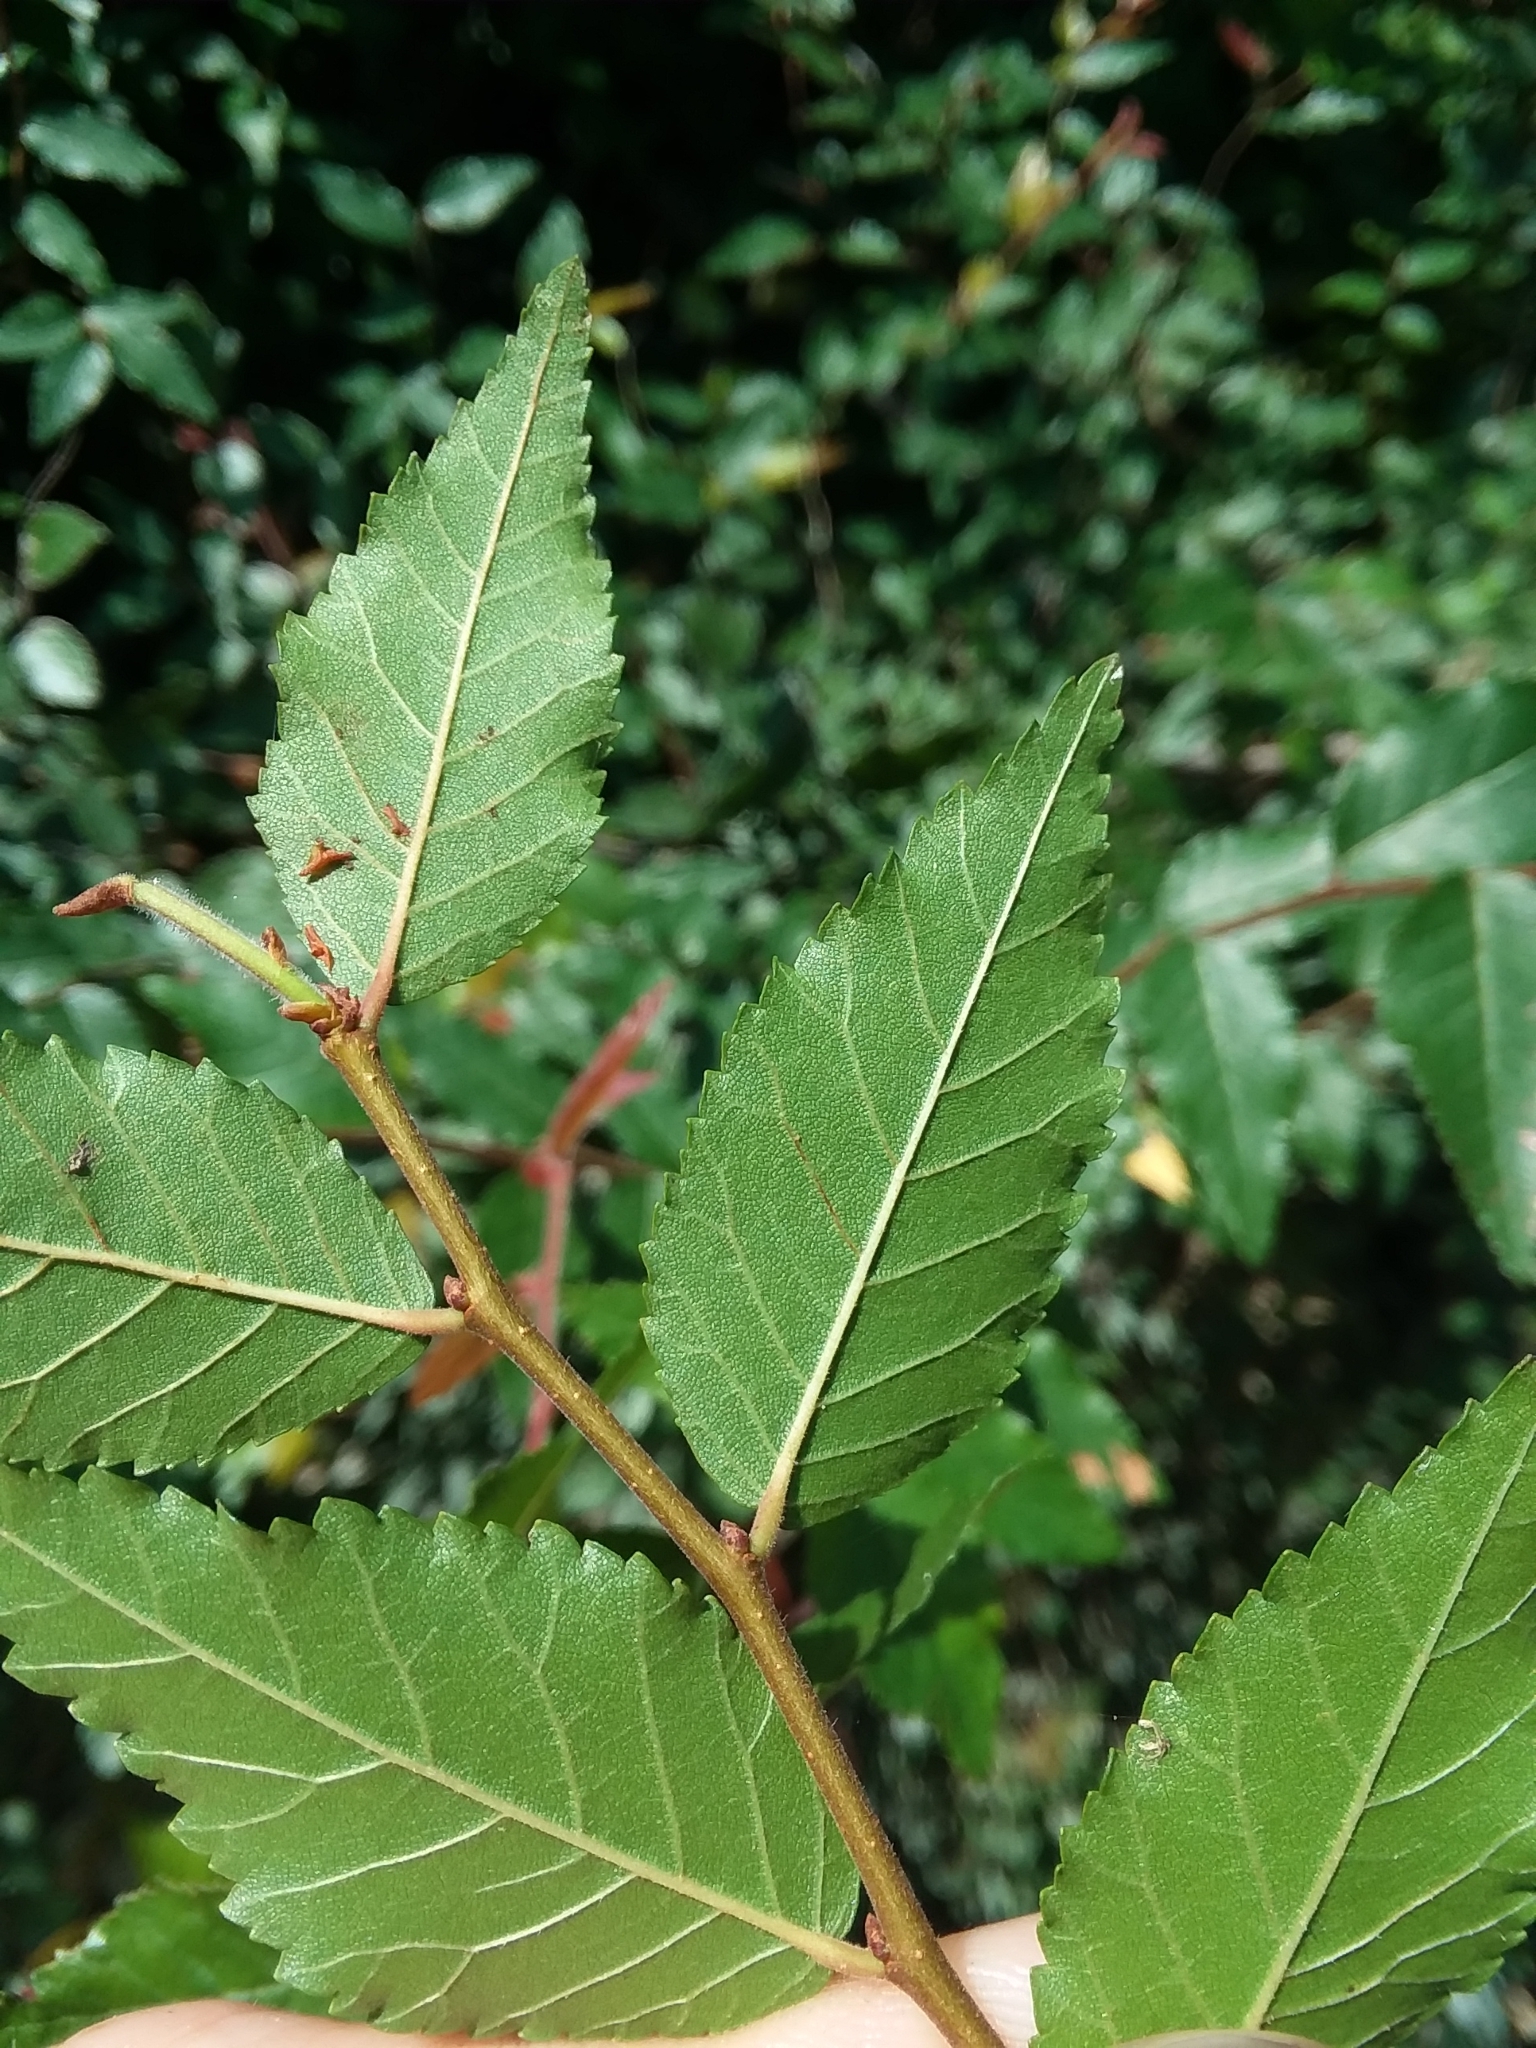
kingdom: Plantae
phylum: Tracheophyta
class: Magnoliopsida
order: Rosales
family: Ulmaceae
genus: Planera
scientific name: Planera aquatica
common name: Water-elm
